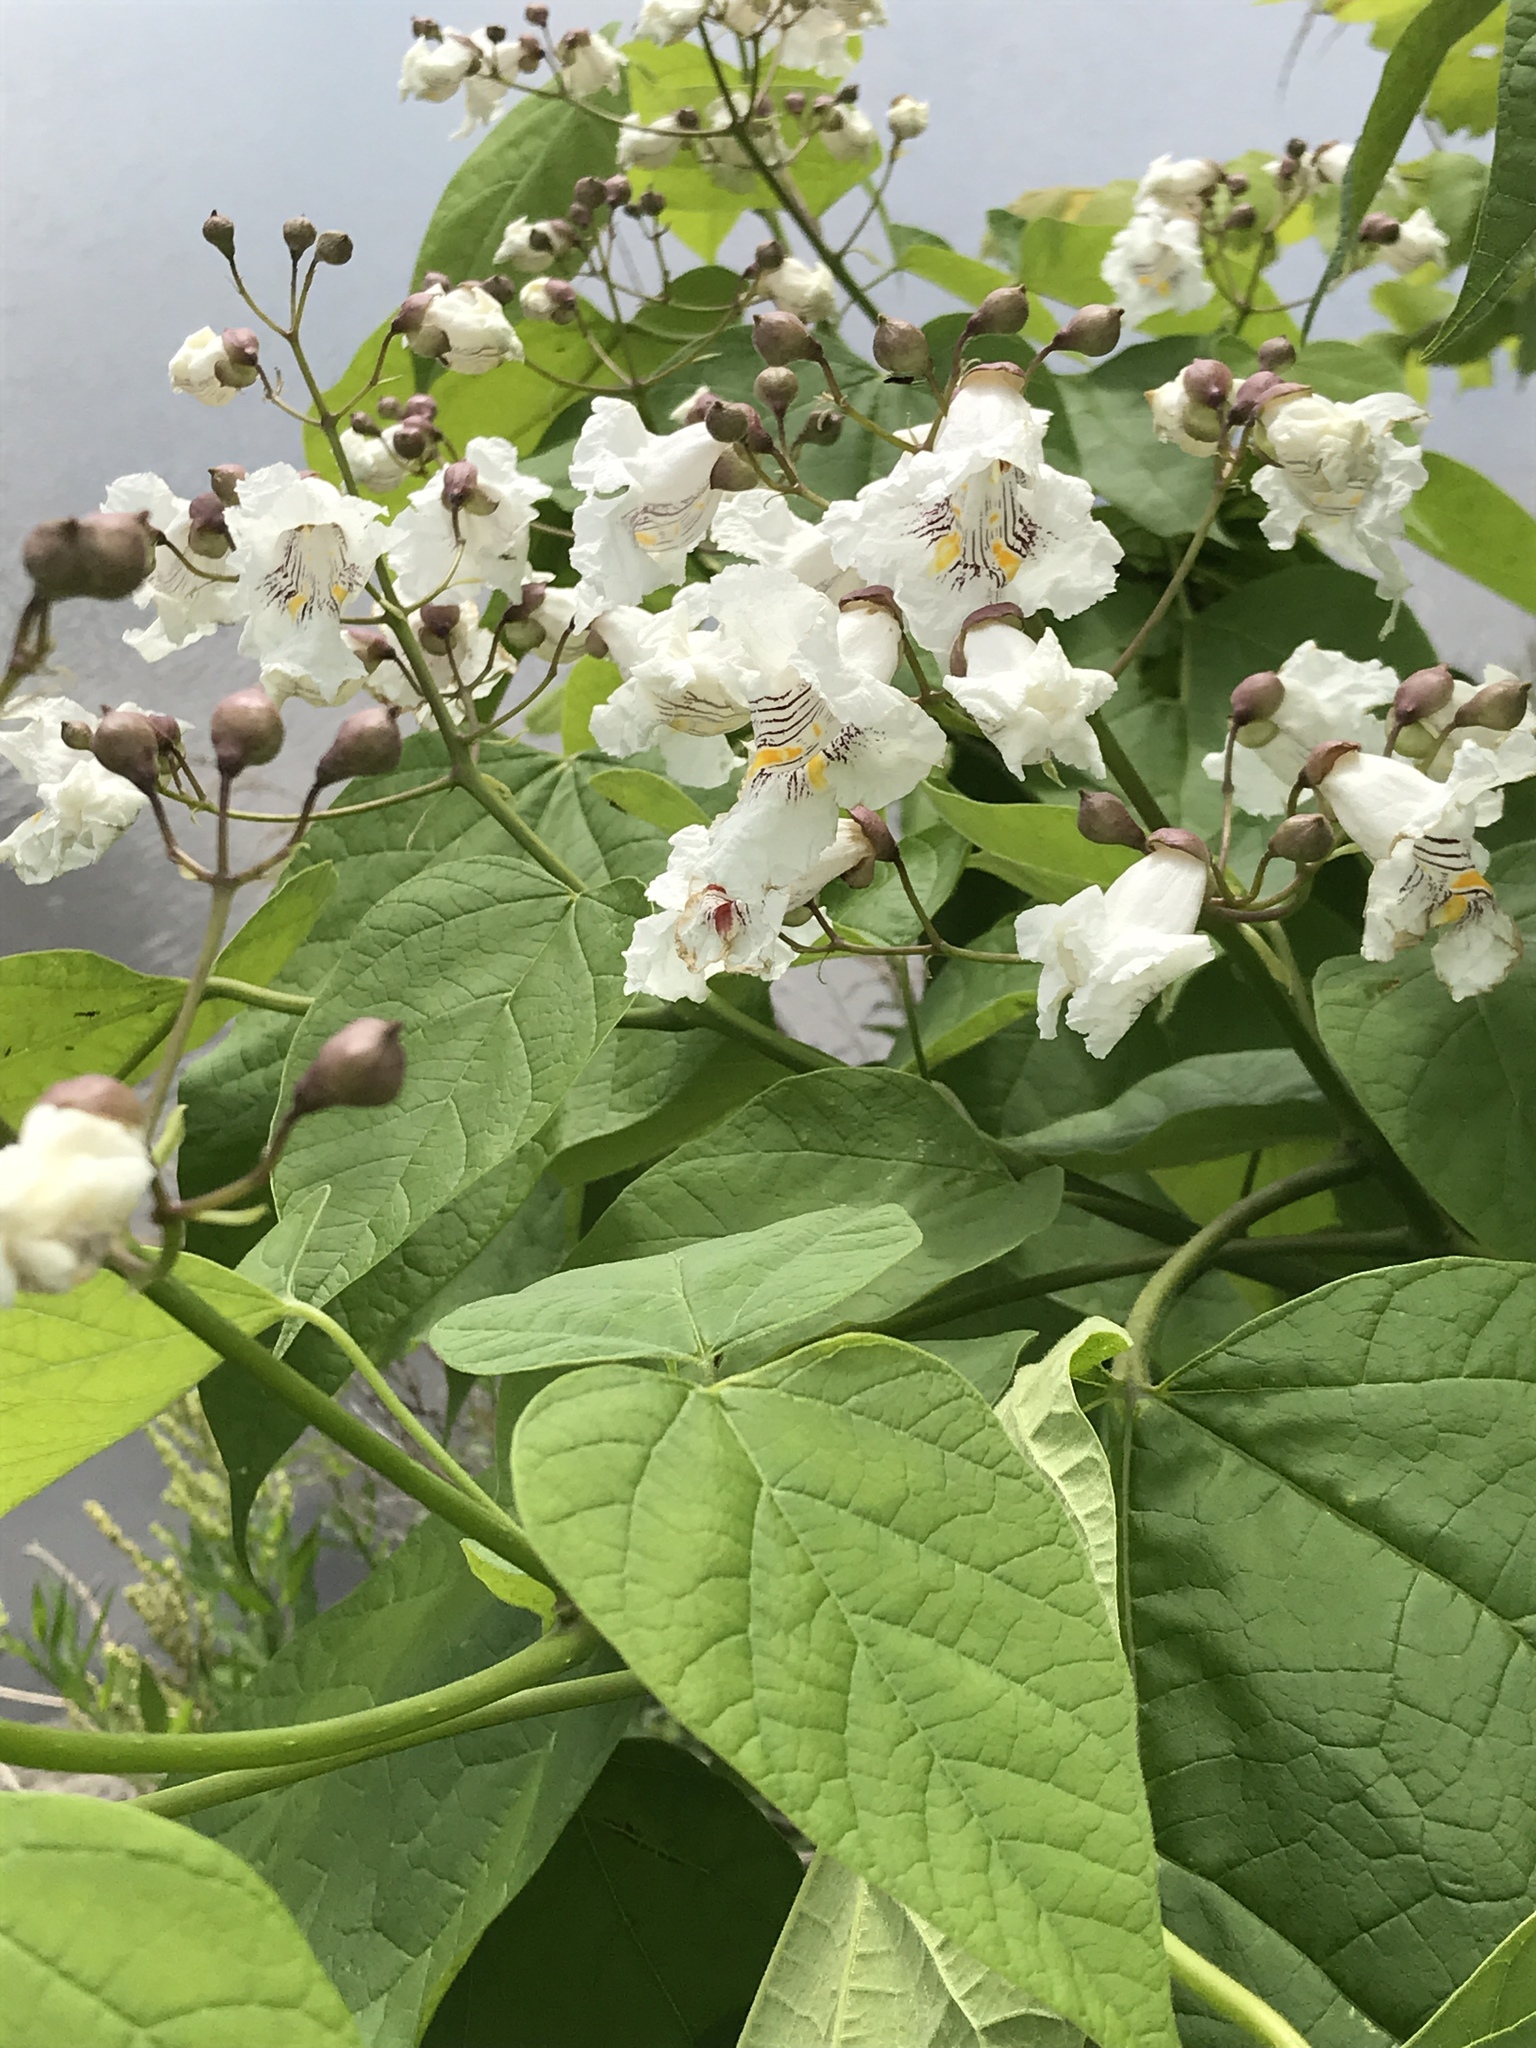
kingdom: Plantae
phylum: Tracheophyta
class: Magnoliopsida
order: Lamiales
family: Bignoniaceae
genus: Catalpa
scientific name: Catalpa speciosa
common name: Northern catalpa
